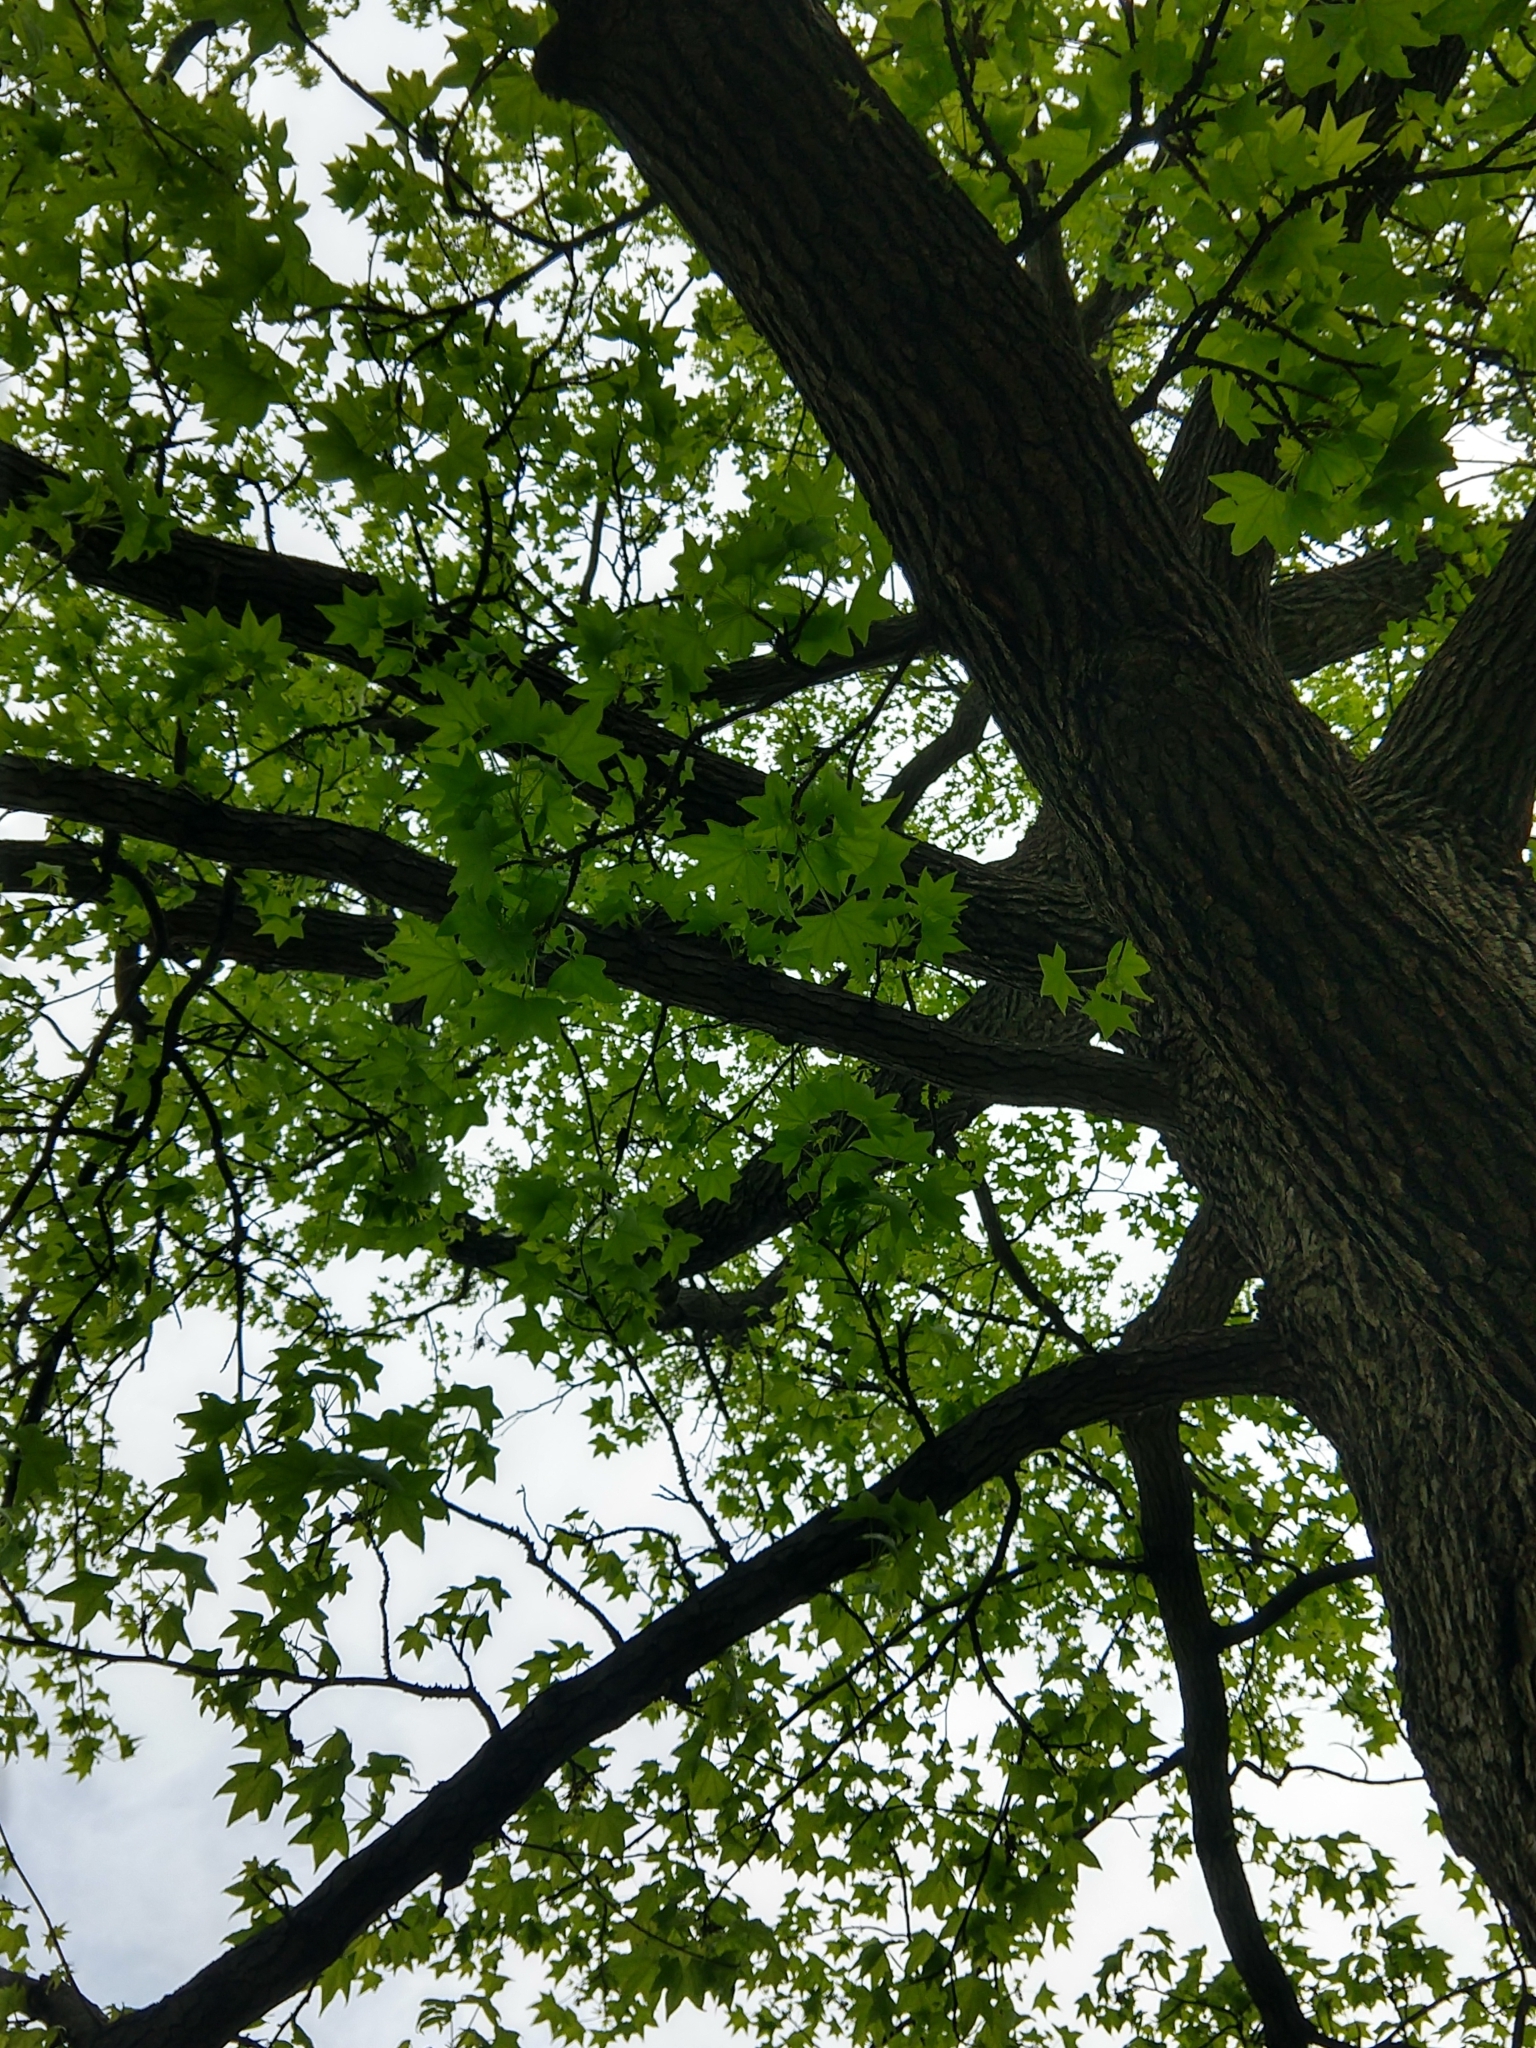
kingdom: Plantae
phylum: Tracheophyta
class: Magnoliopsida
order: Saxifragales
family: Altingiaceae
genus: Liquidambar
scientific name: Liquidambar styraciflua
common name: Sweet gum
